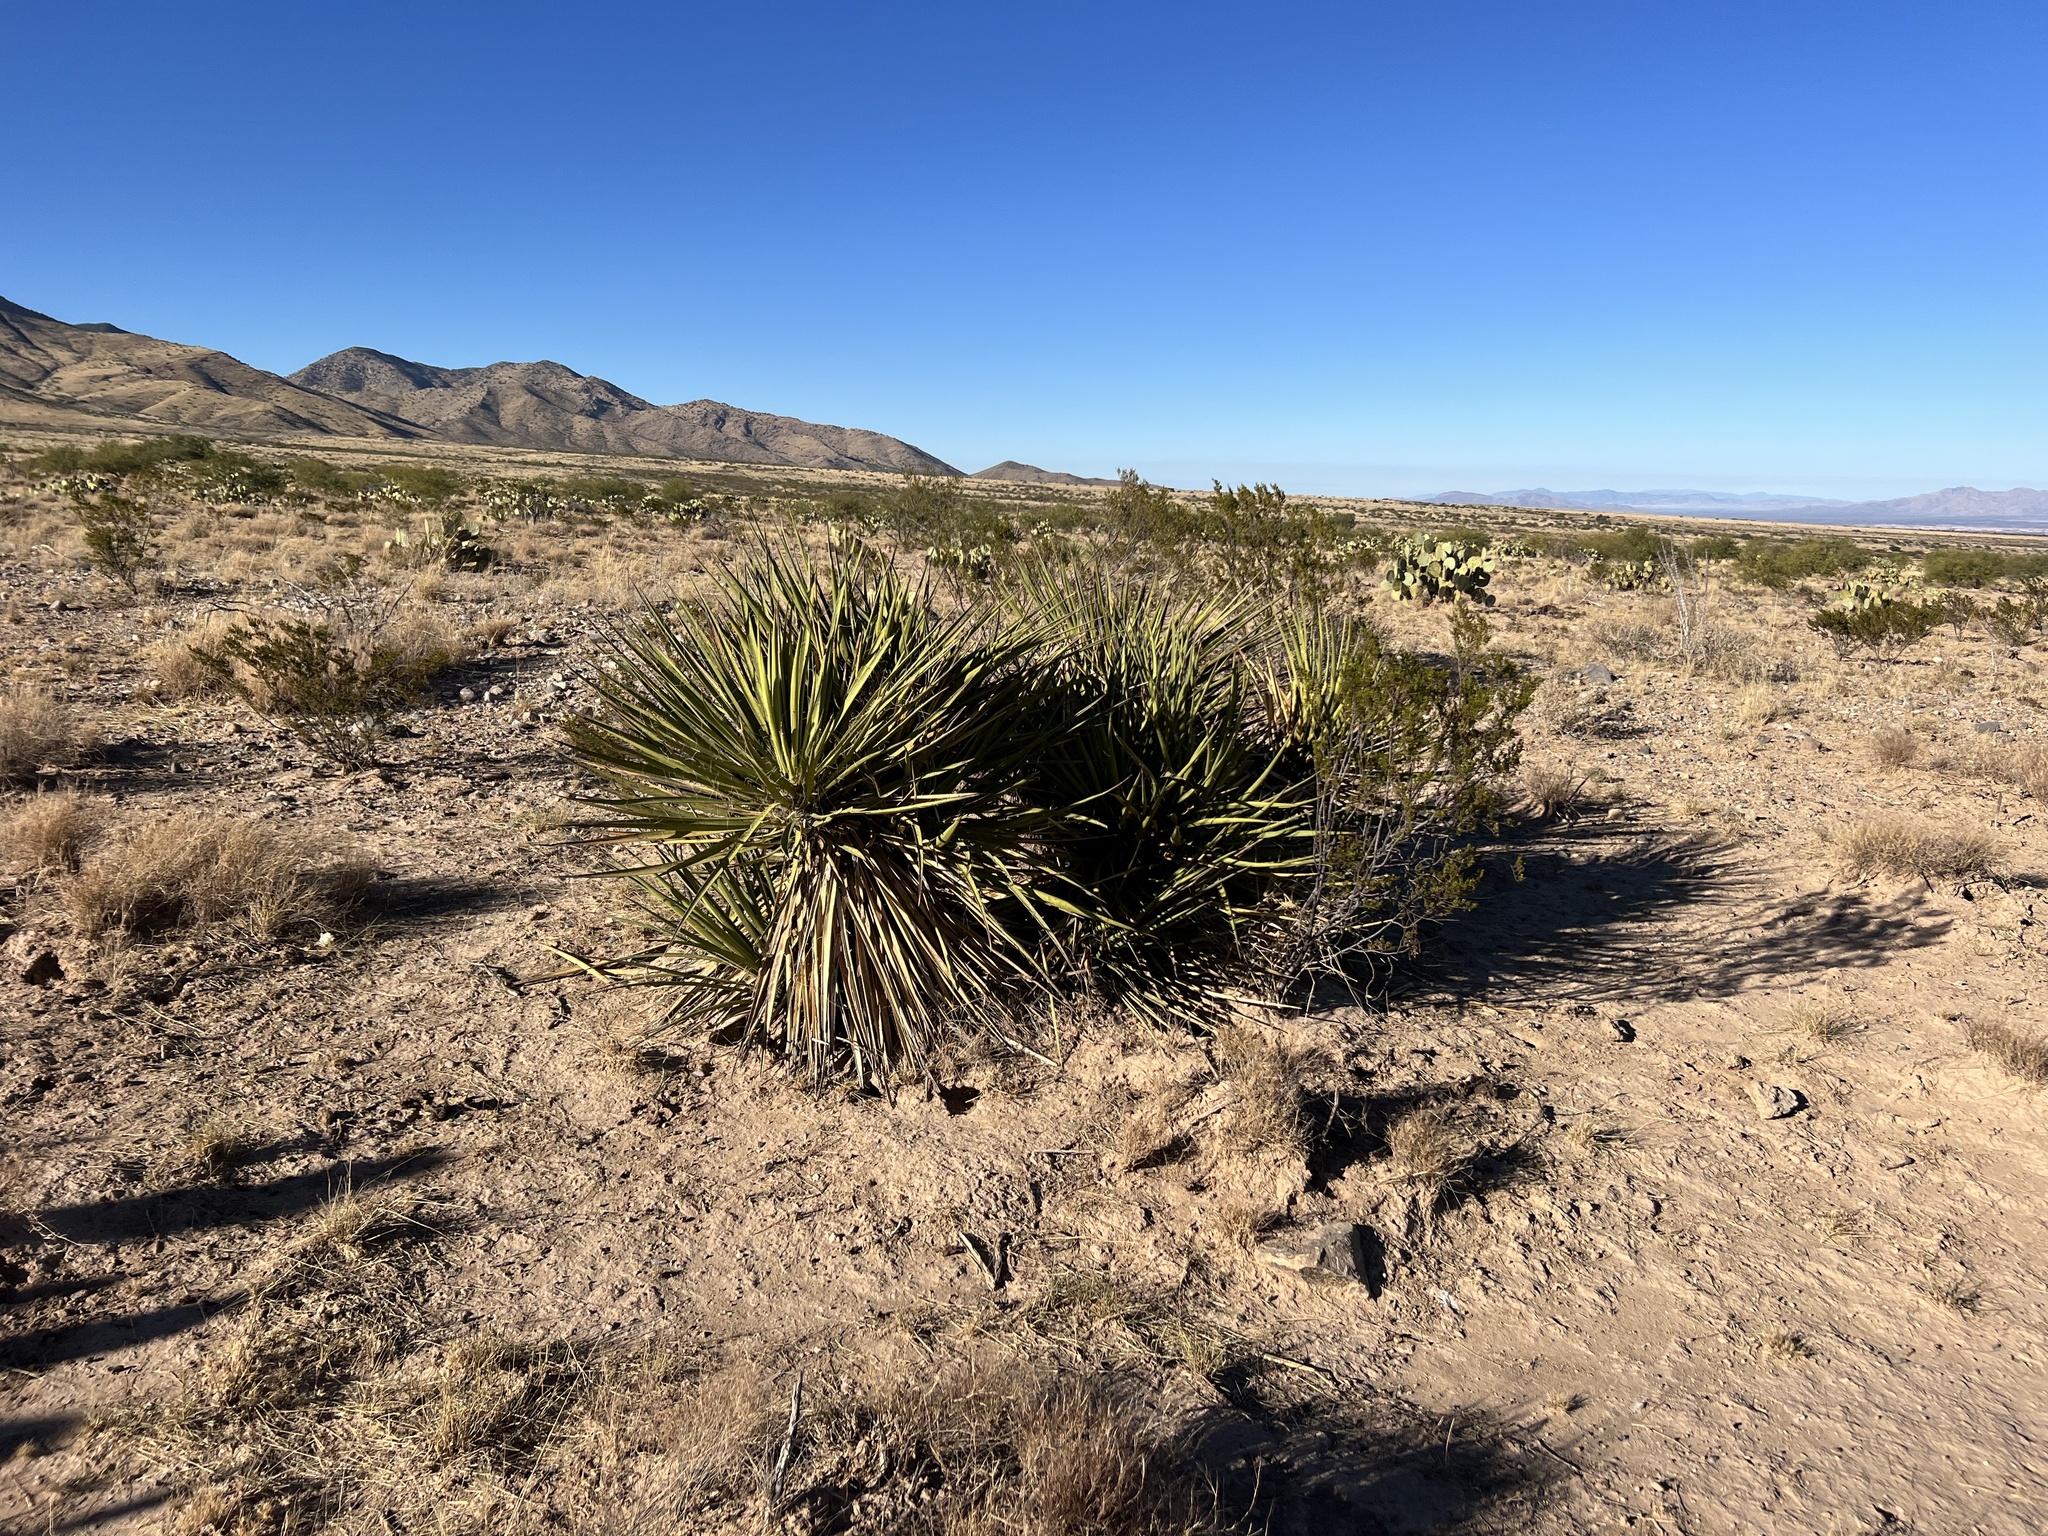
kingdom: Plantae
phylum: Tracheophyta
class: Liliopsida
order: Asparagales
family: Asparagaceae
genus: Yucca
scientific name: Yucca baccata
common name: Banana yucca
